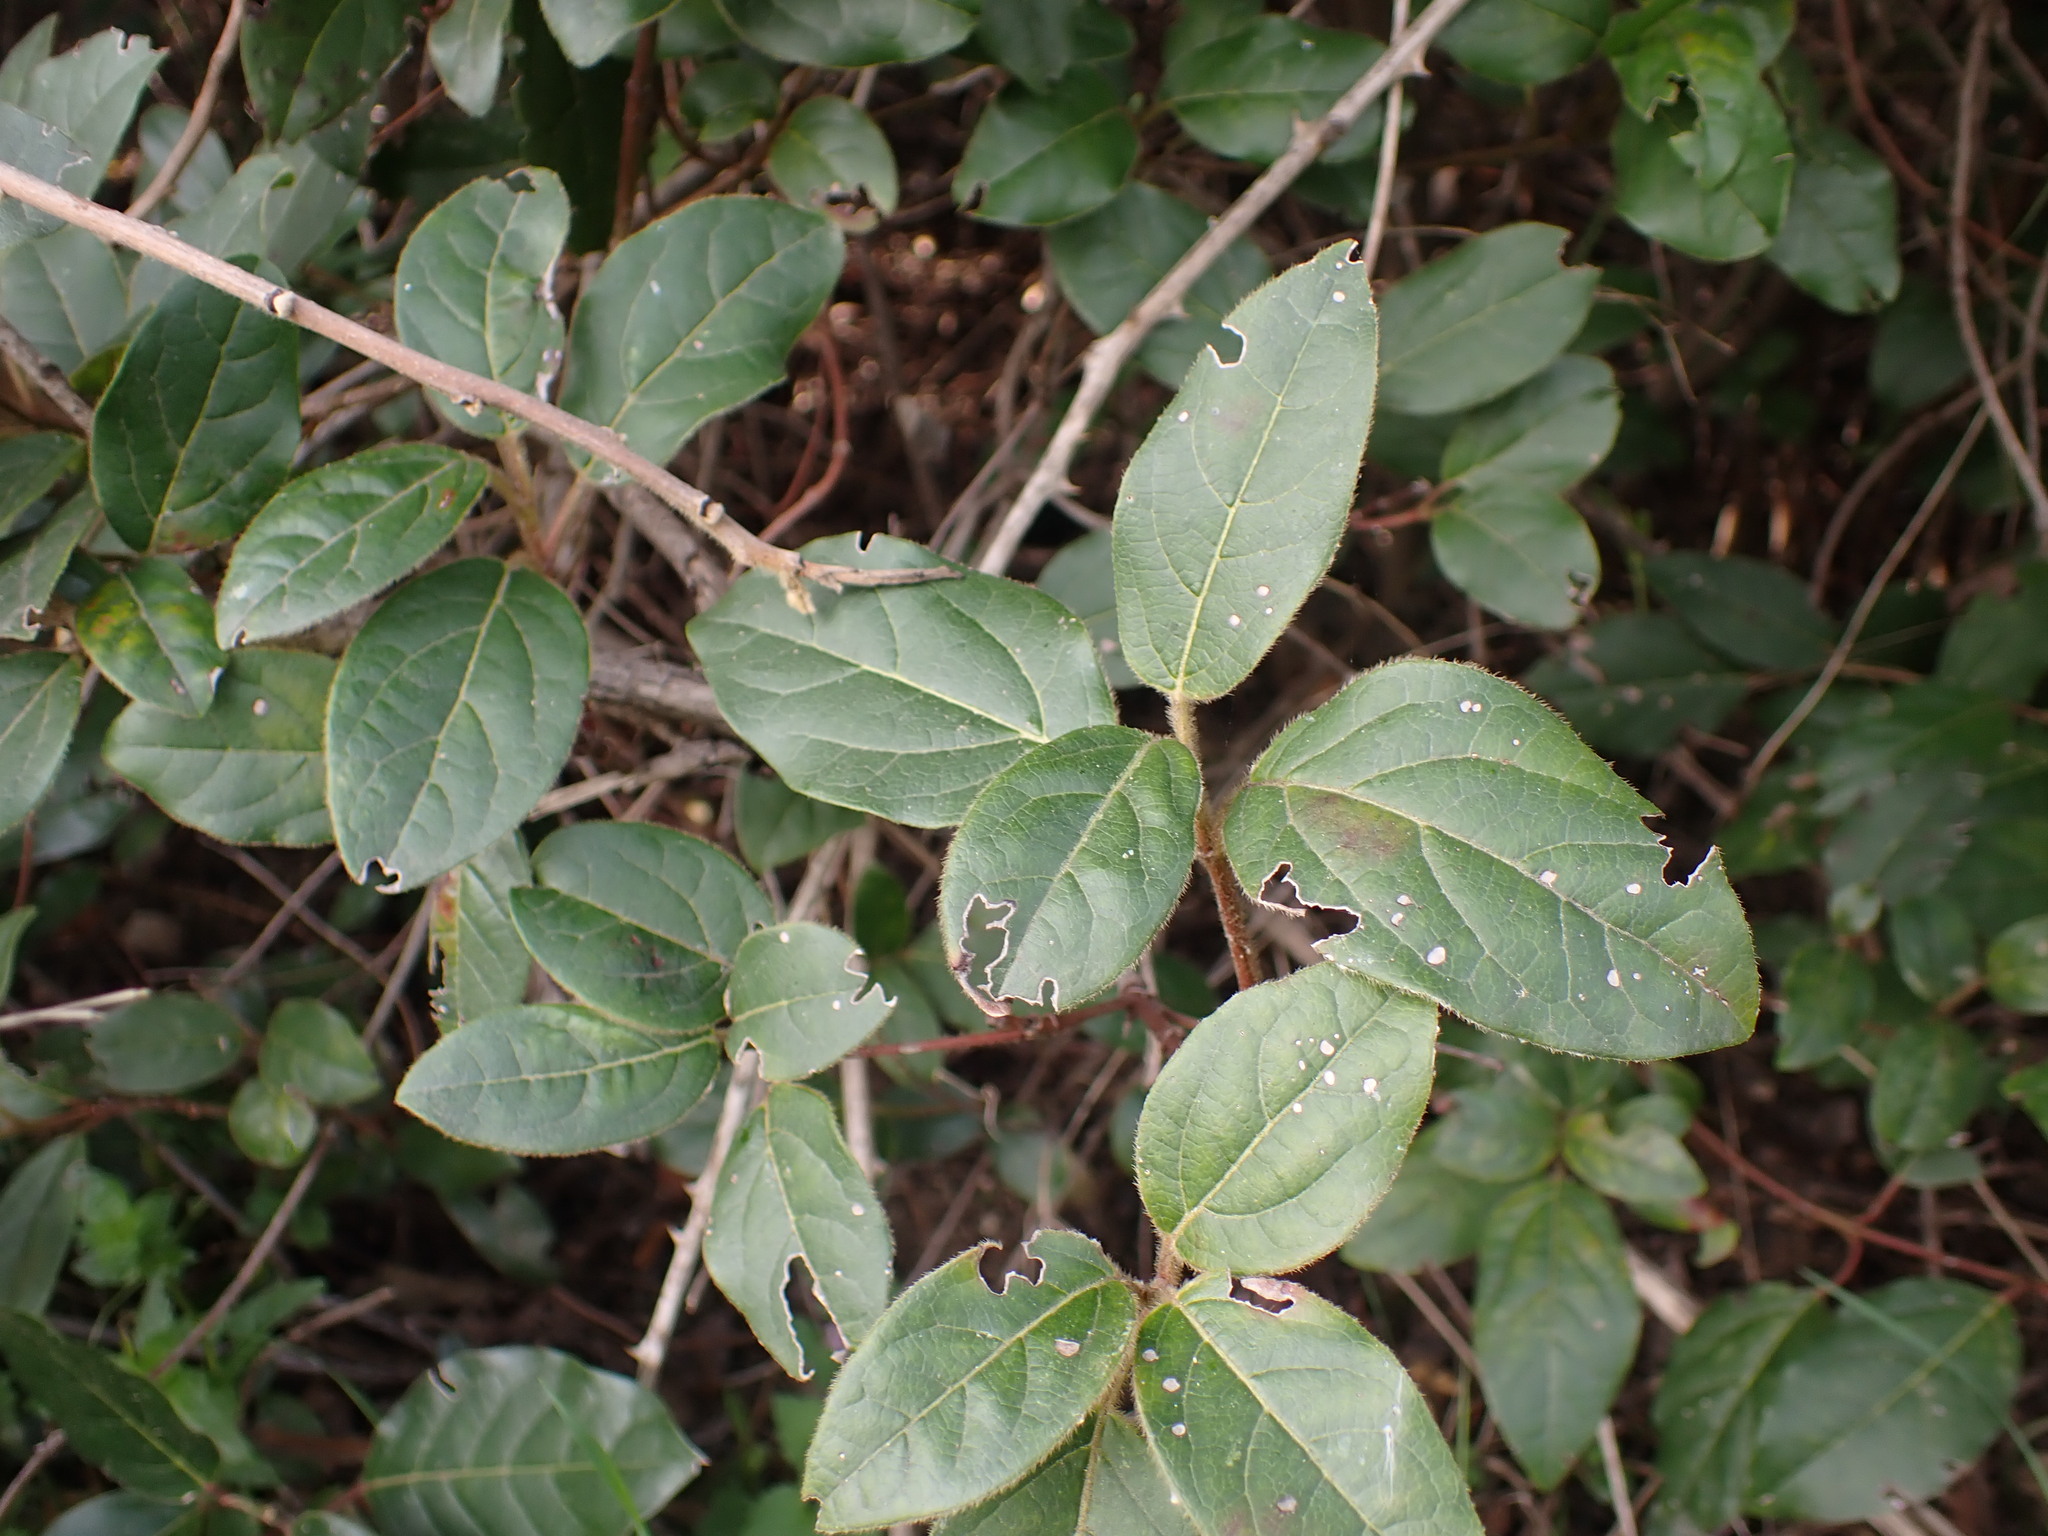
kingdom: Plantae
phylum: Tracheophyta
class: Magnoliopsida
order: Dipsacales
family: Viburnaceae
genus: Viburnum
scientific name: Viburnum tinus
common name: Laurustinus
